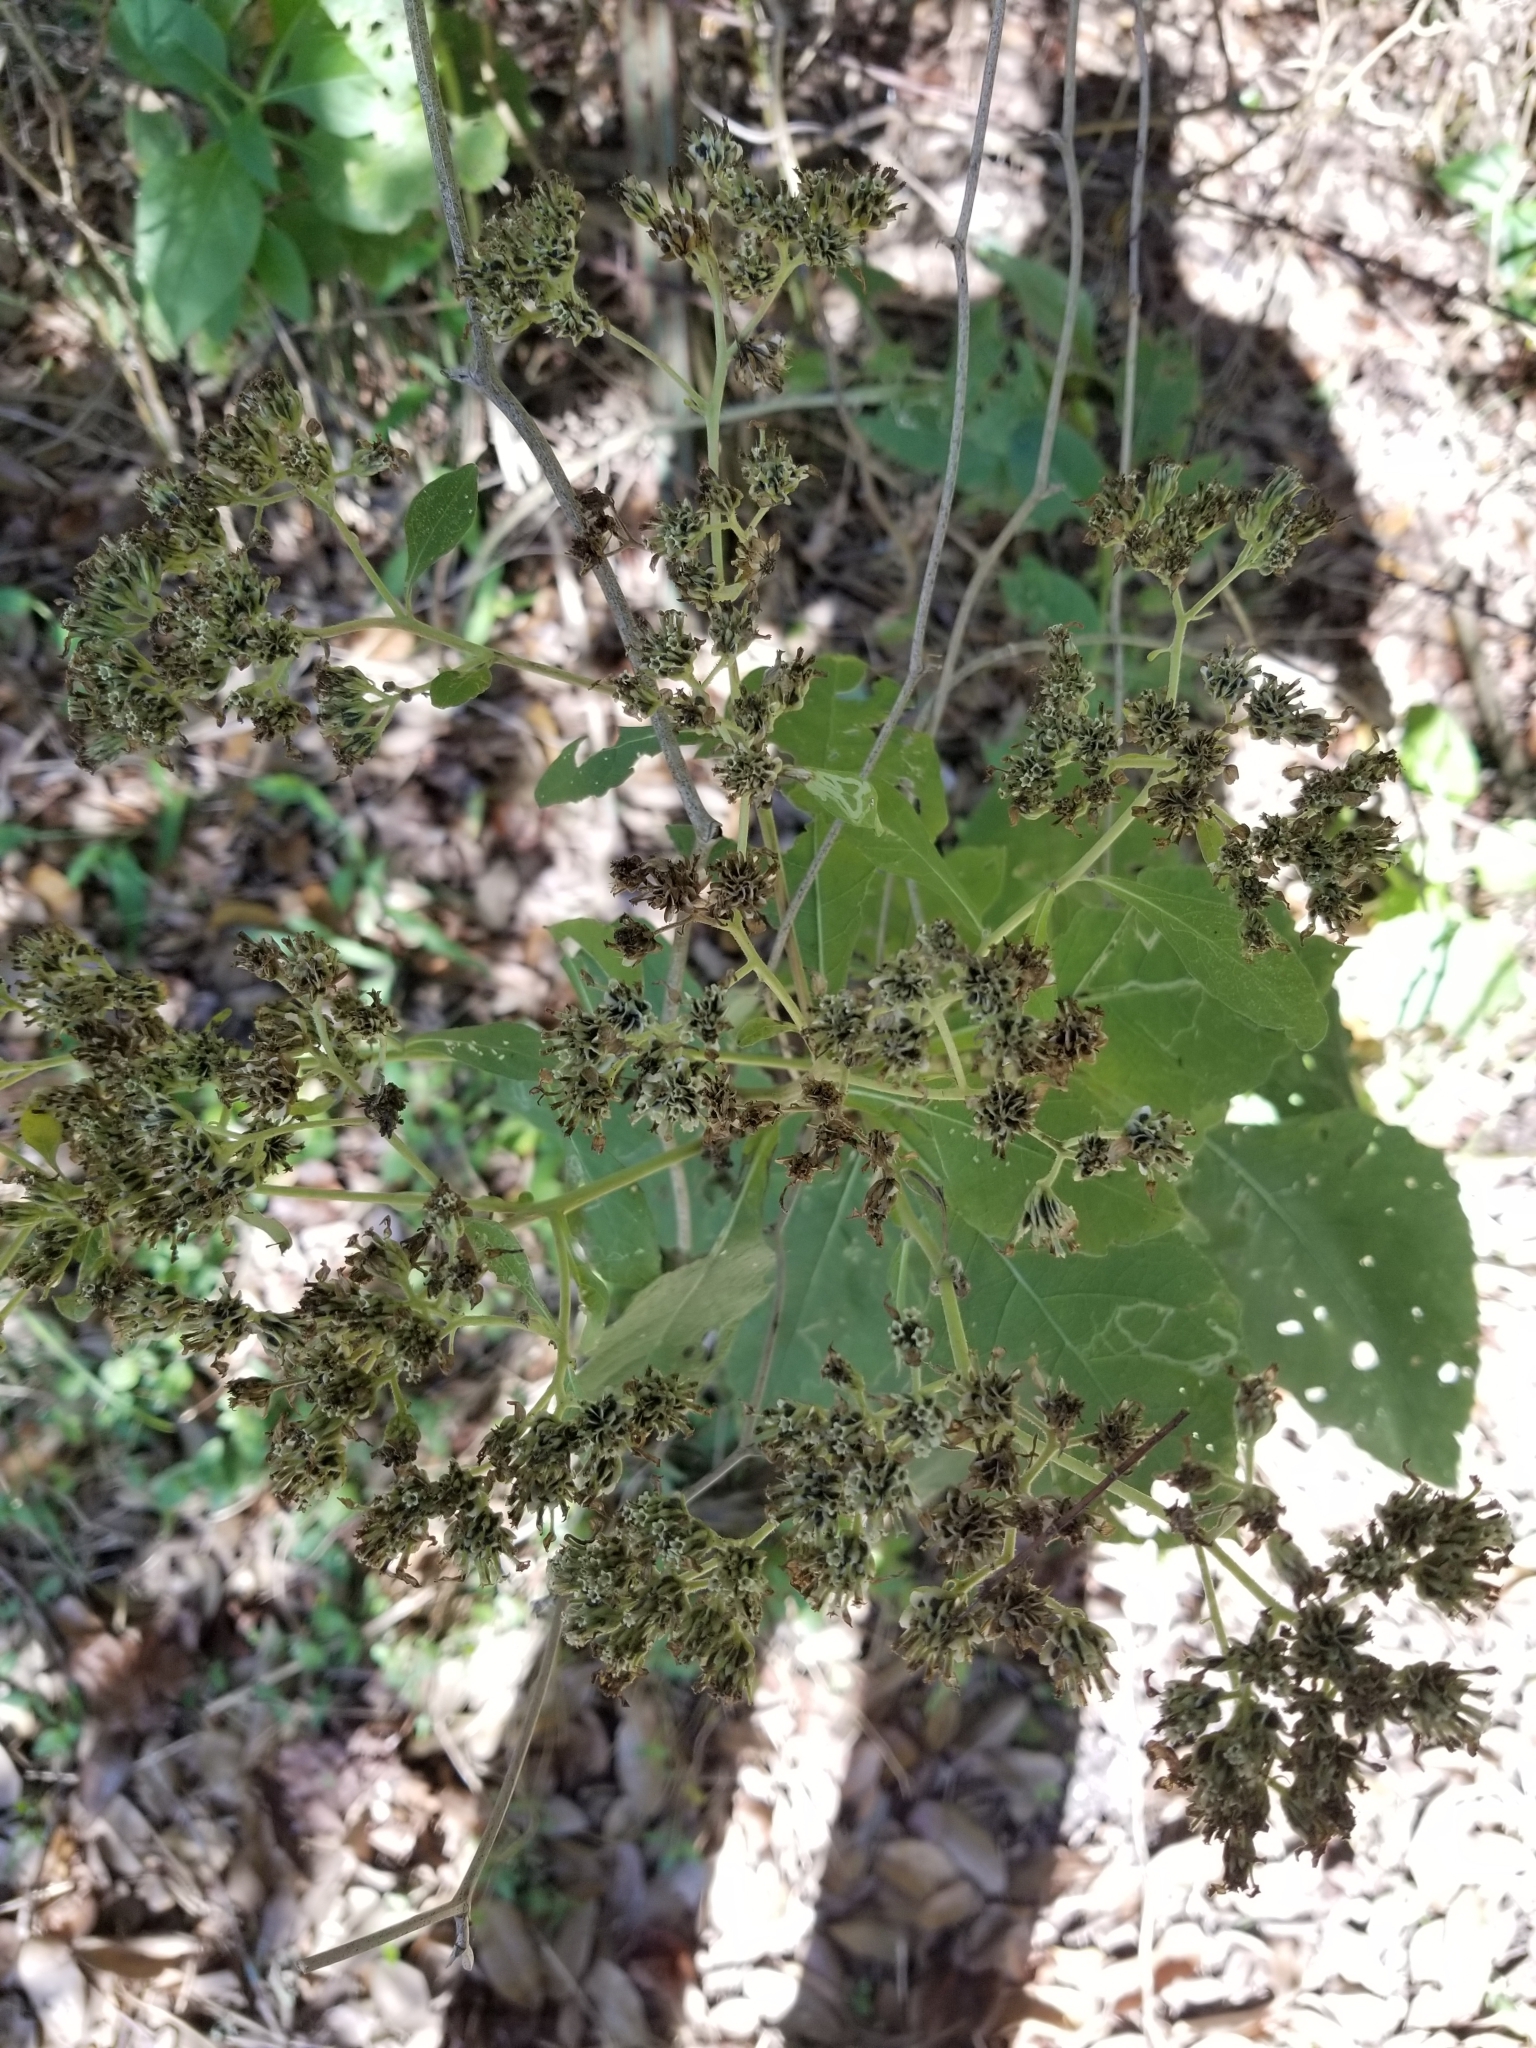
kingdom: Plantae
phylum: Tracheophyta
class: Magnoliopsida
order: Asterales
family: Asteraceae
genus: Verbesina
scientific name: Verbesina virginica
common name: Frostweed
